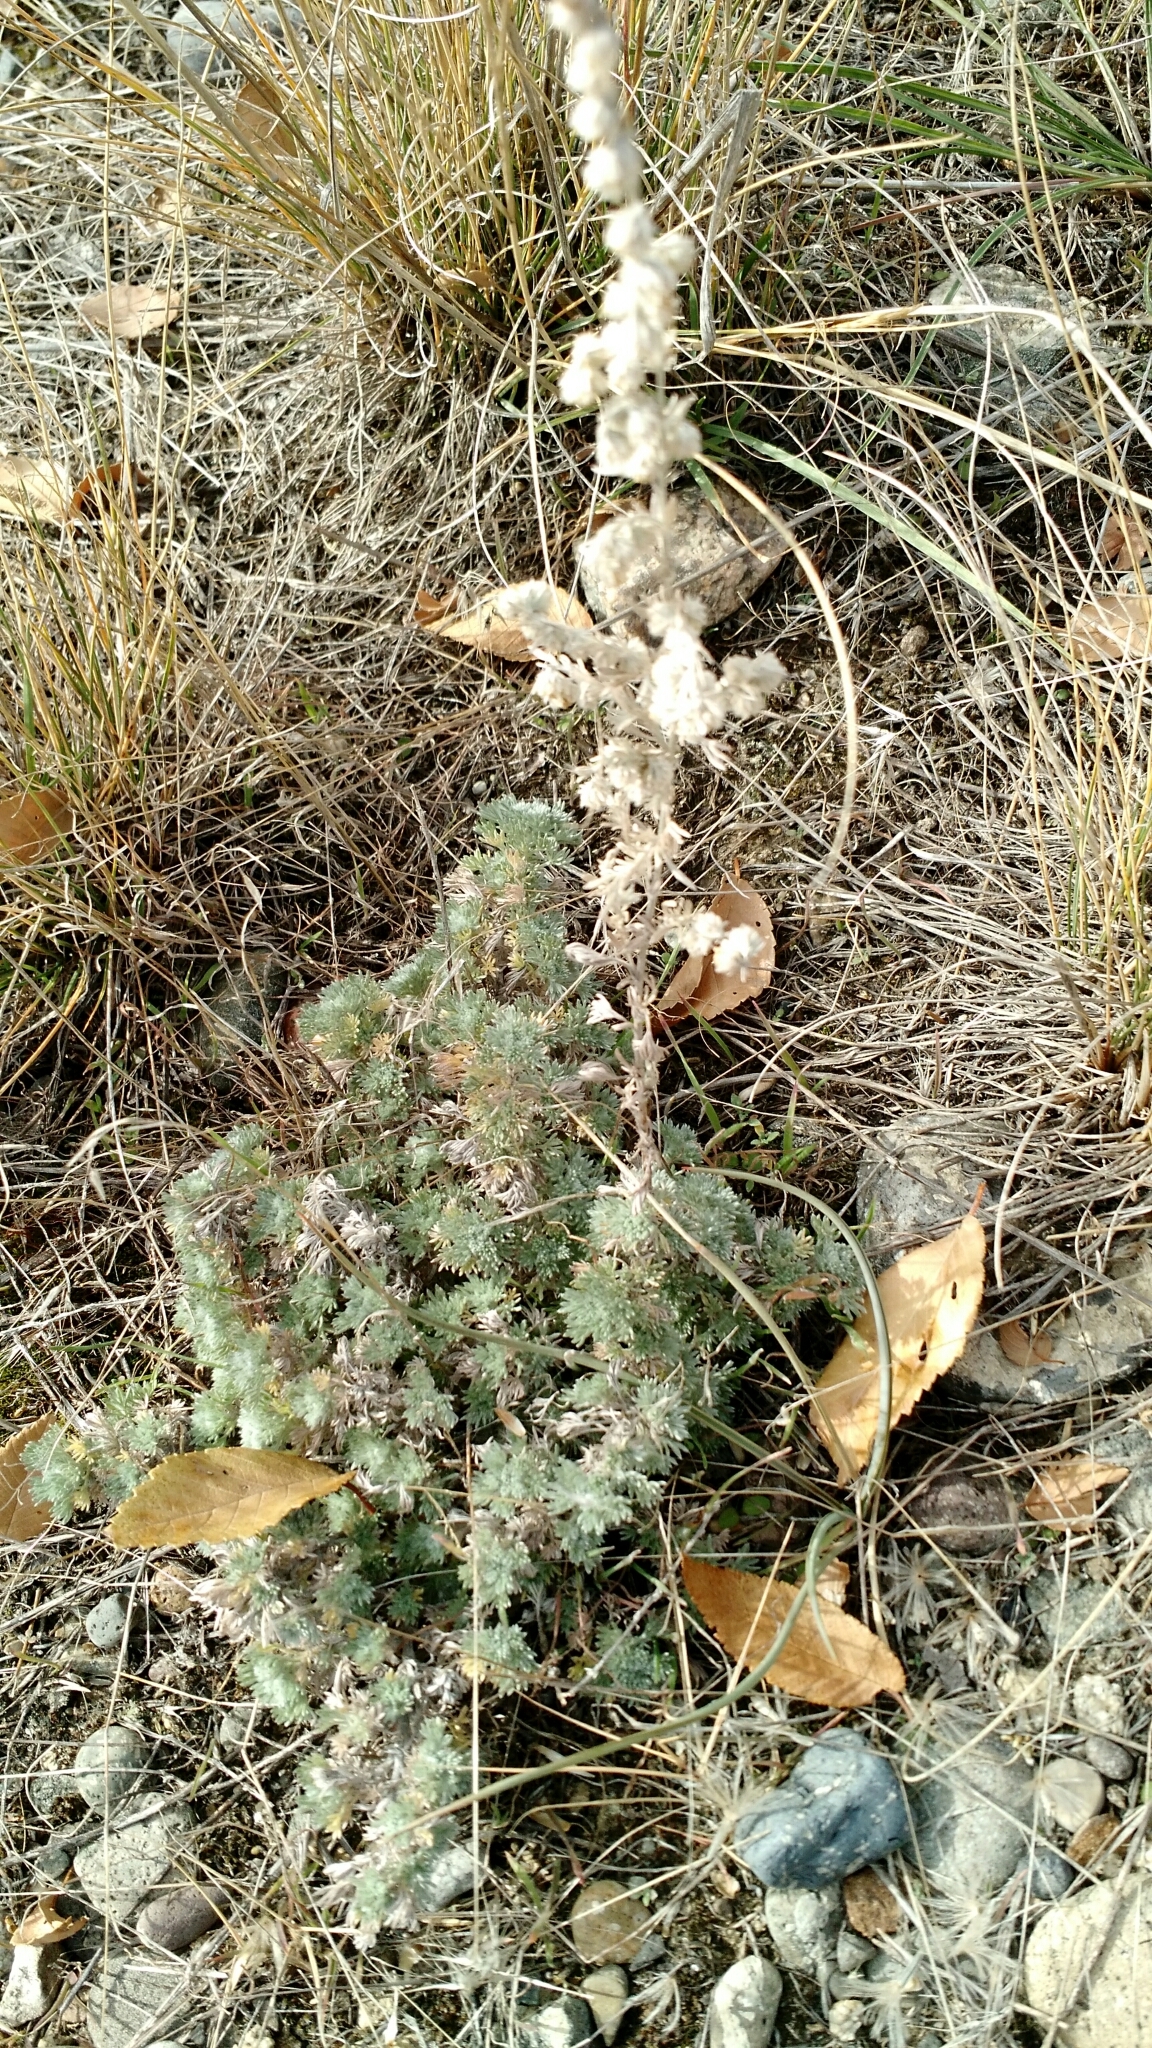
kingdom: Plantae
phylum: Tracheophyta
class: Magnoliopsida
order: Asterales
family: Asteraceae
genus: Artemisia
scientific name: Artemisia frigida
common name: Prairie sagewort
